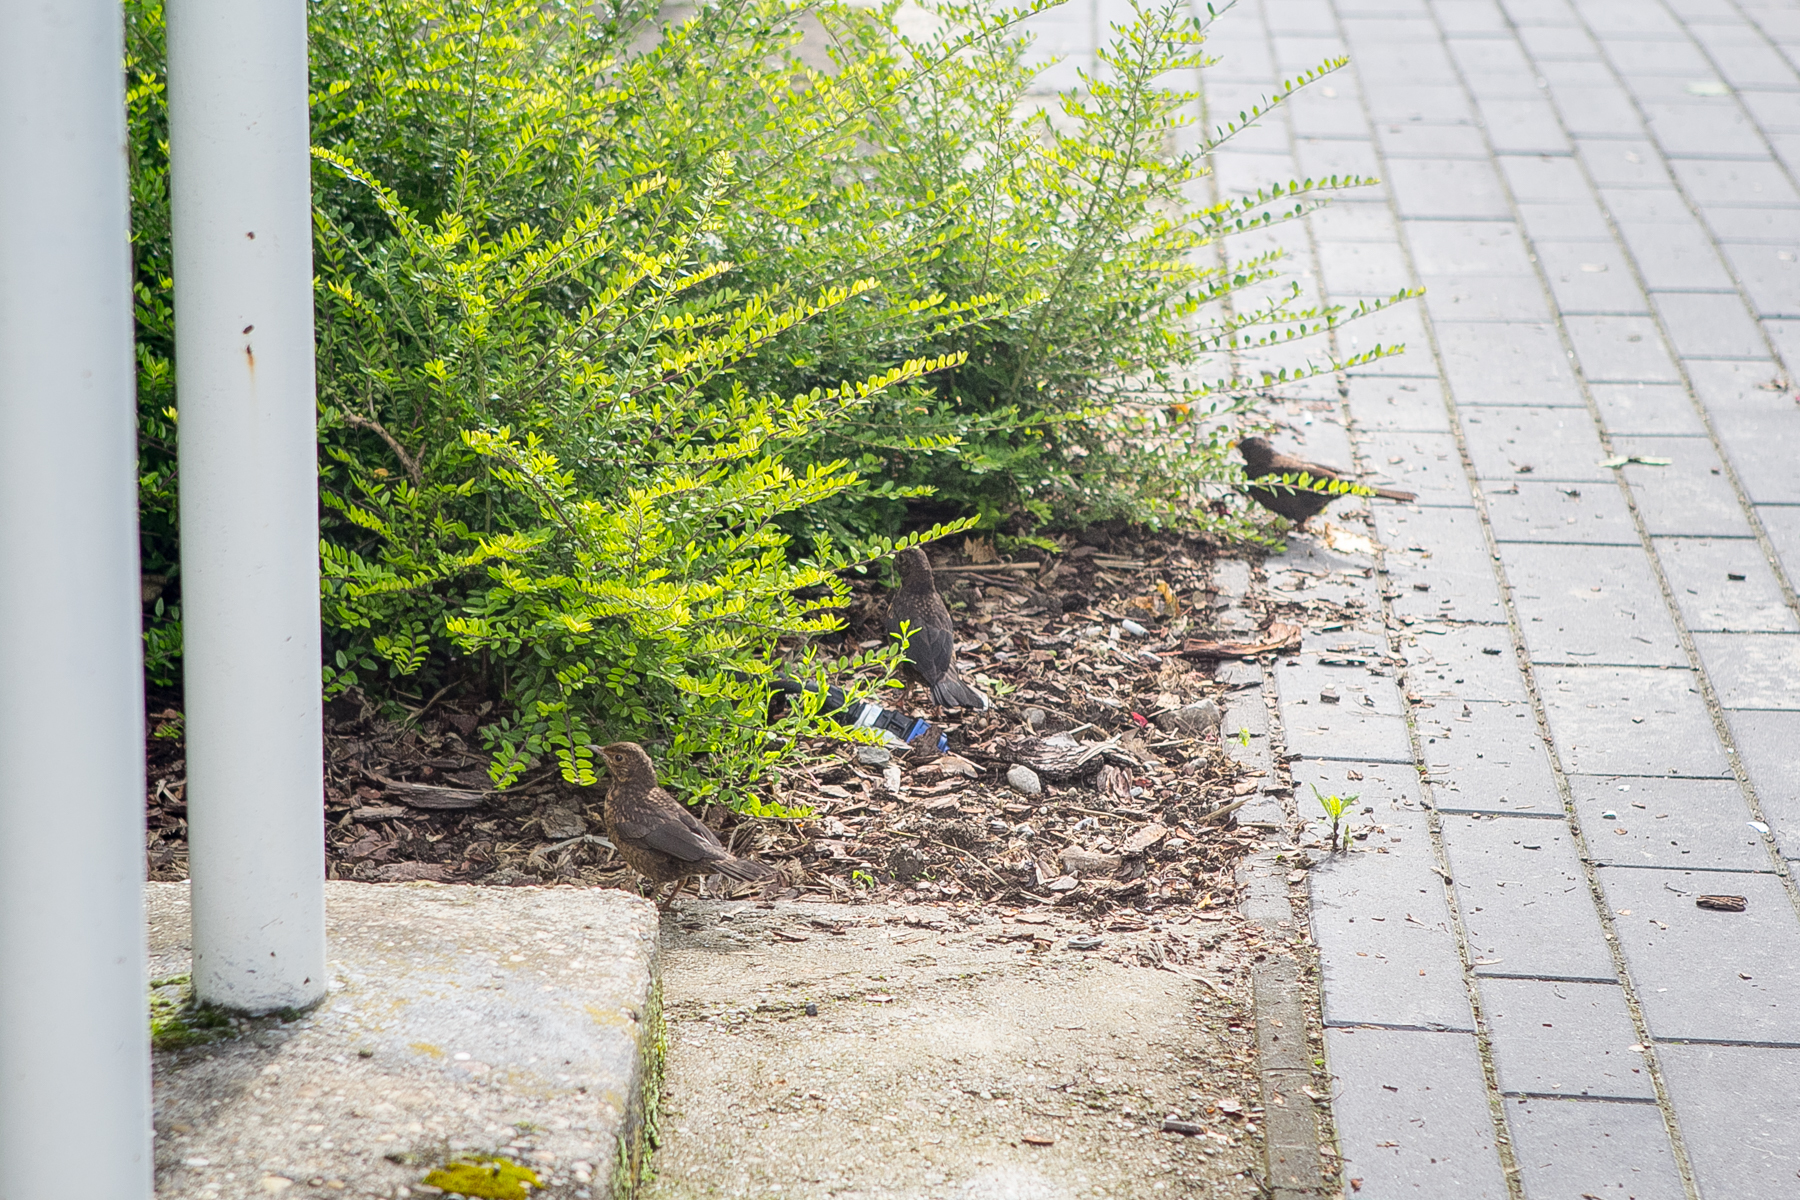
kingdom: Animalia
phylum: Chordata
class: Aves
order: Passeriformes
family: Turdidae
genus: Turdus
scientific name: Turdus merula
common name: Common blackbird
